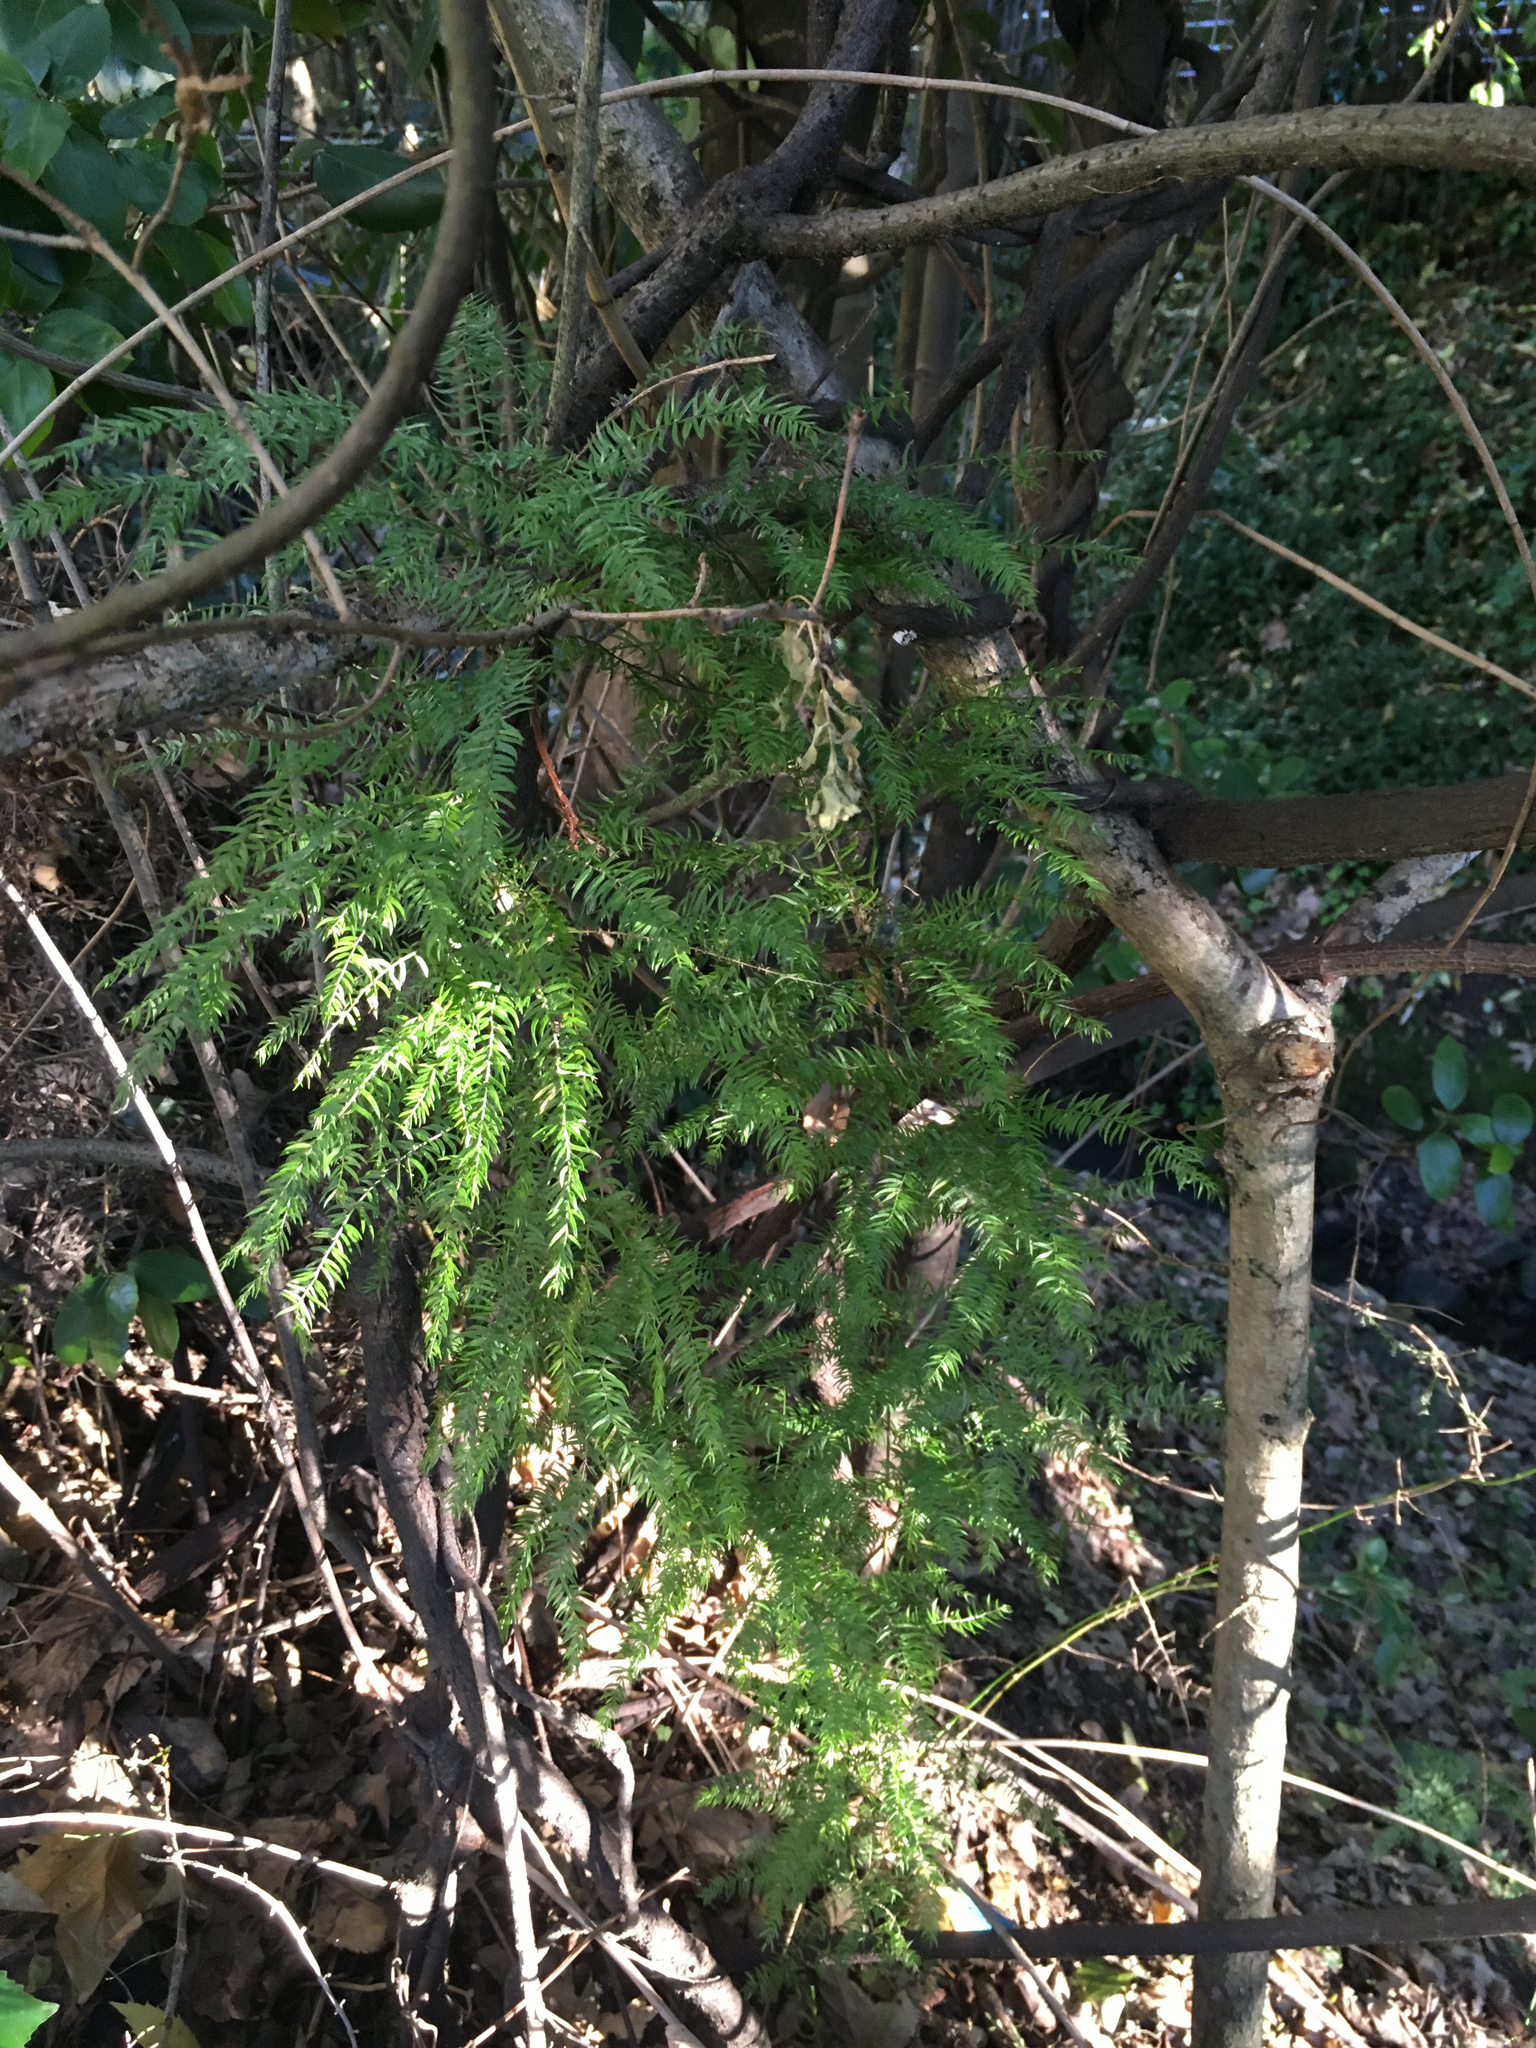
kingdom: Plantae
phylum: Tracheophyta
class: Liliopsida
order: Asparagales
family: Asparagaceae
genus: Asparagus
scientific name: Asparagus scandens
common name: Asparagus-fern
